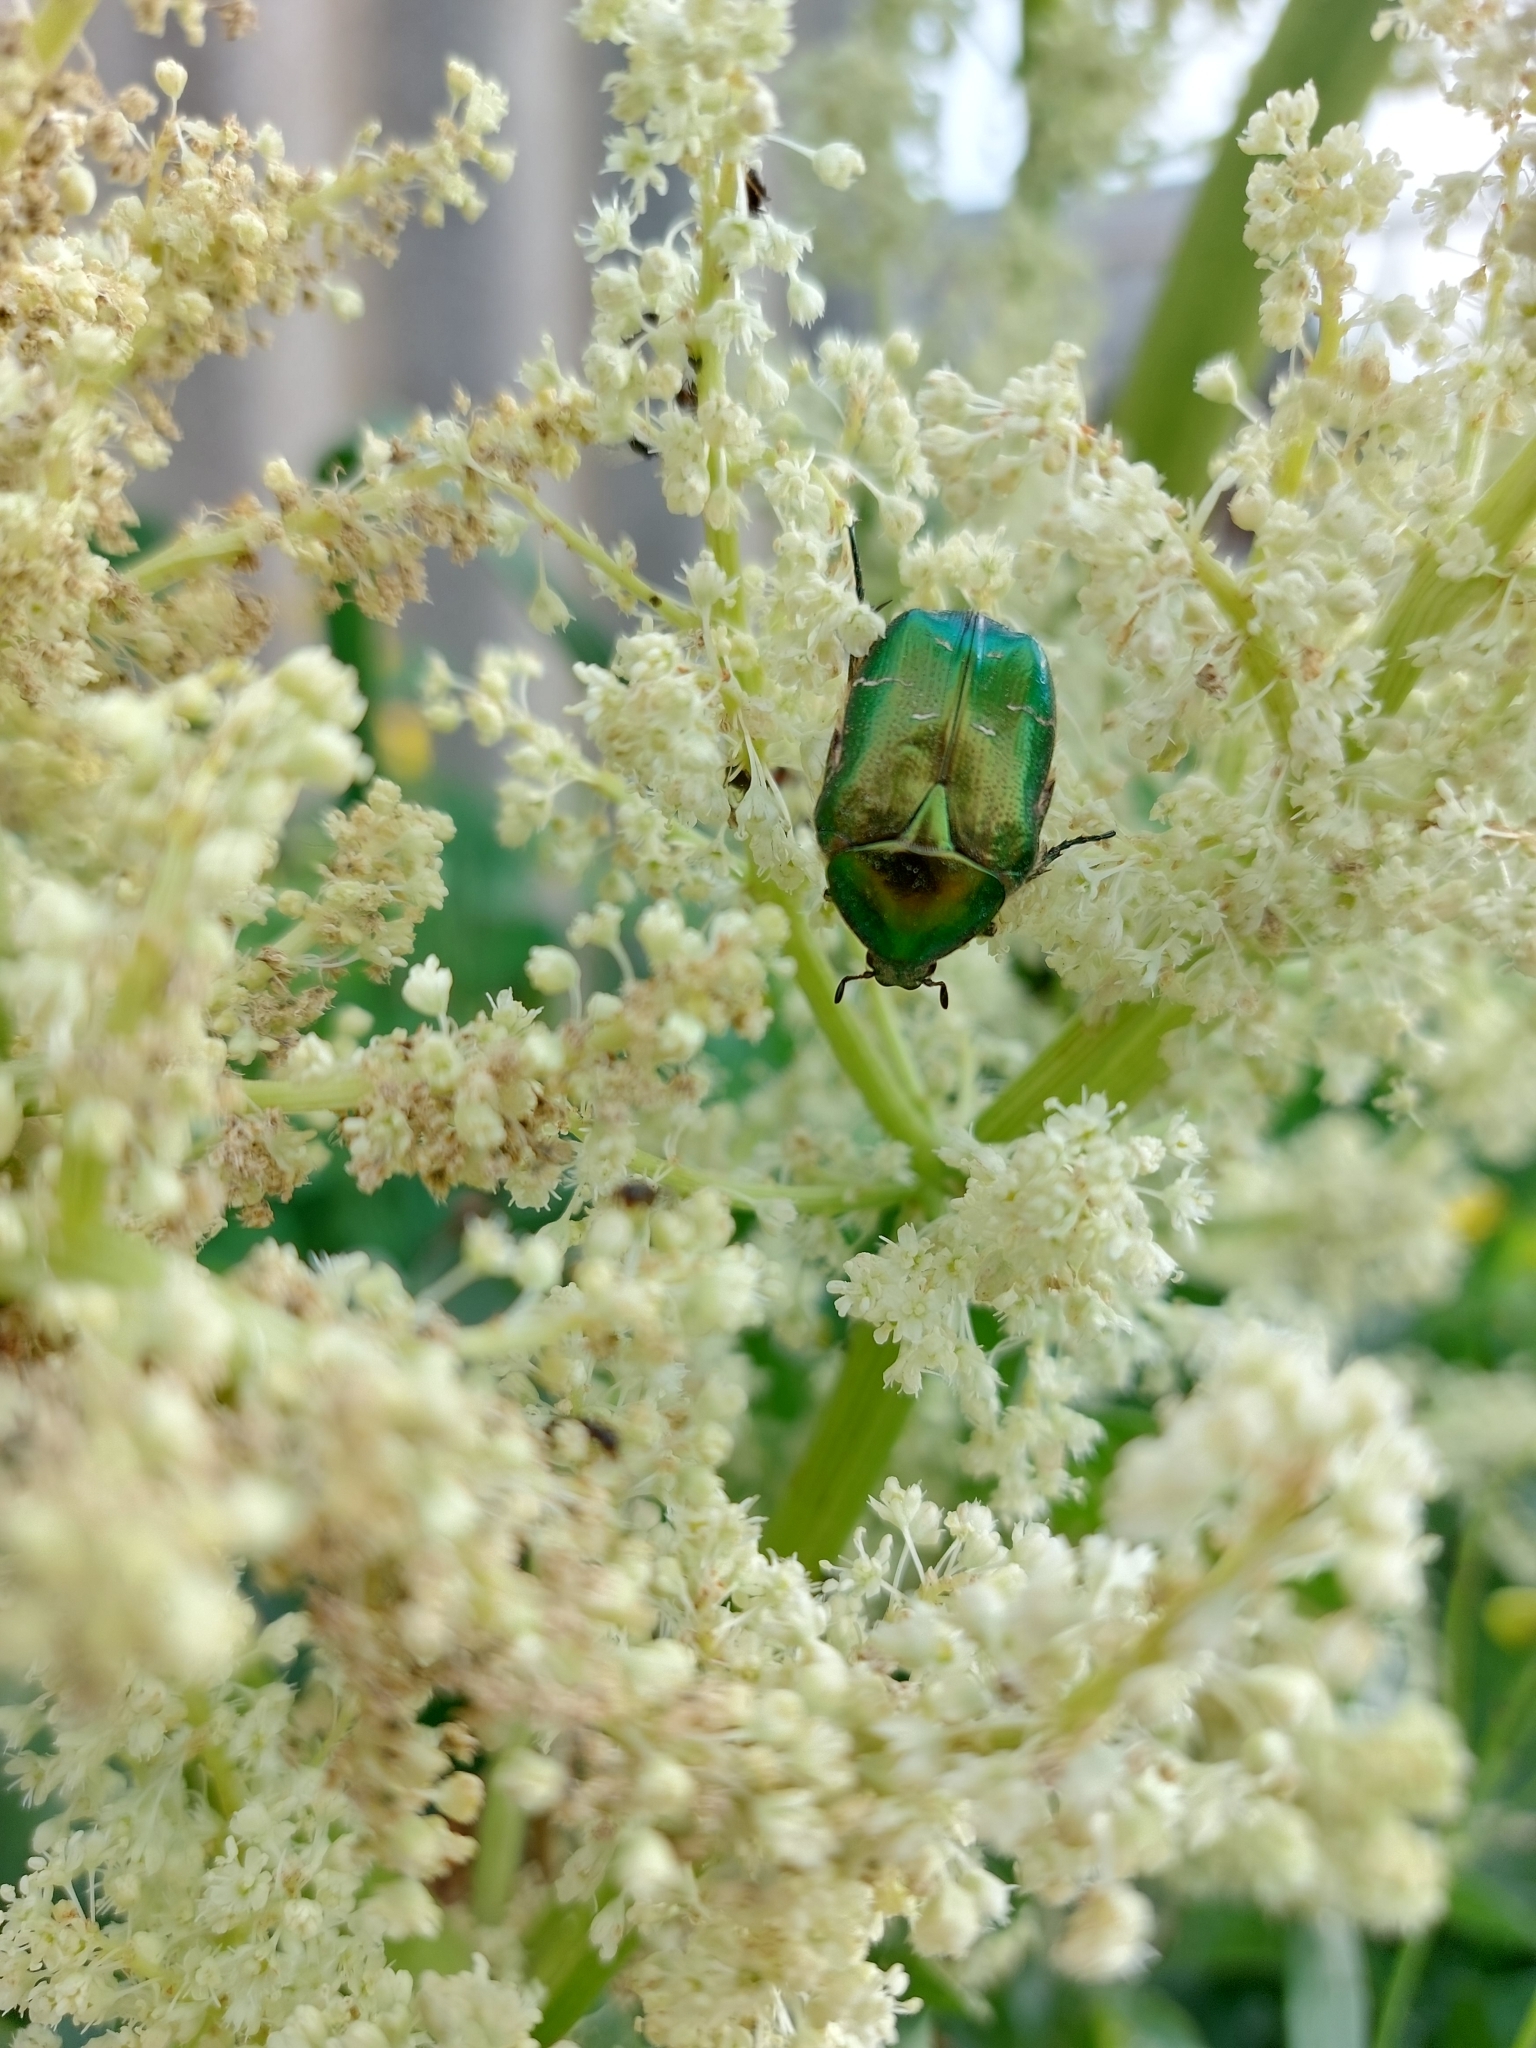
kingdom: Animalia
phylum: Arthropoda
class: Insecta
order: Coleoptera
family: Scarabaeidae
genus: Cetonia
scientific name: Cetonia aurata
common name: Rose chafer
